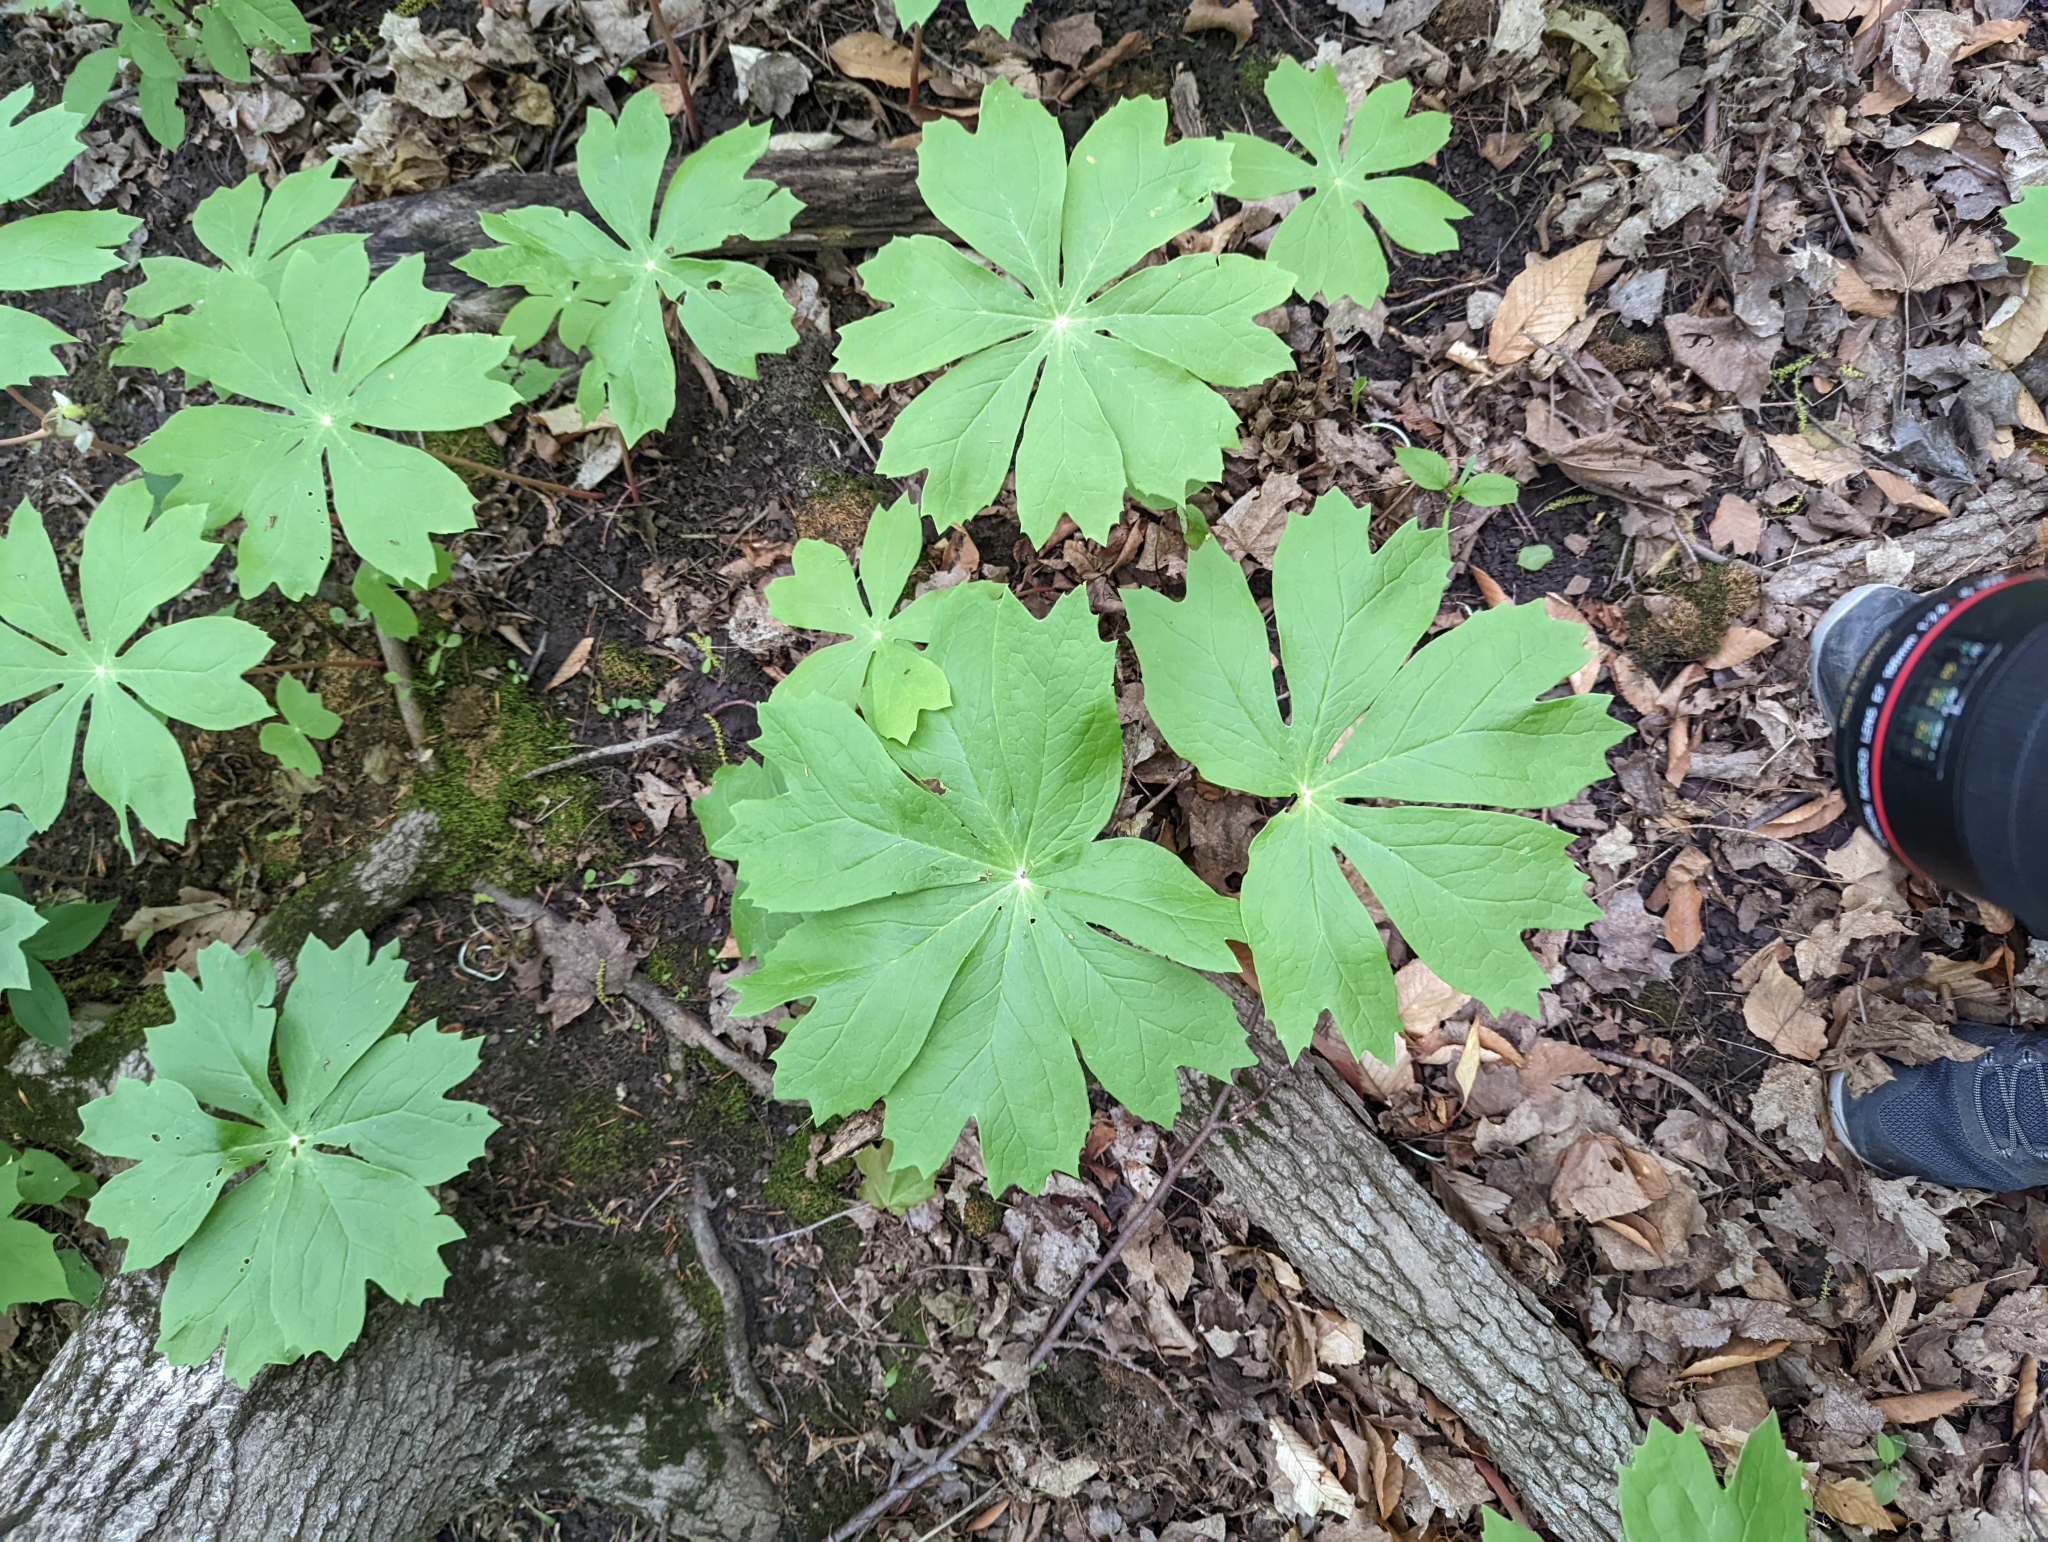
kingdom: Plantae
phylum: Tracheophyta
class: Magnoliopsida
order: Ranunculales
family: Berberidaceae
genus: Podophyllum
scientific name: Podophyllum peltatum
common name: Wild mandrake
